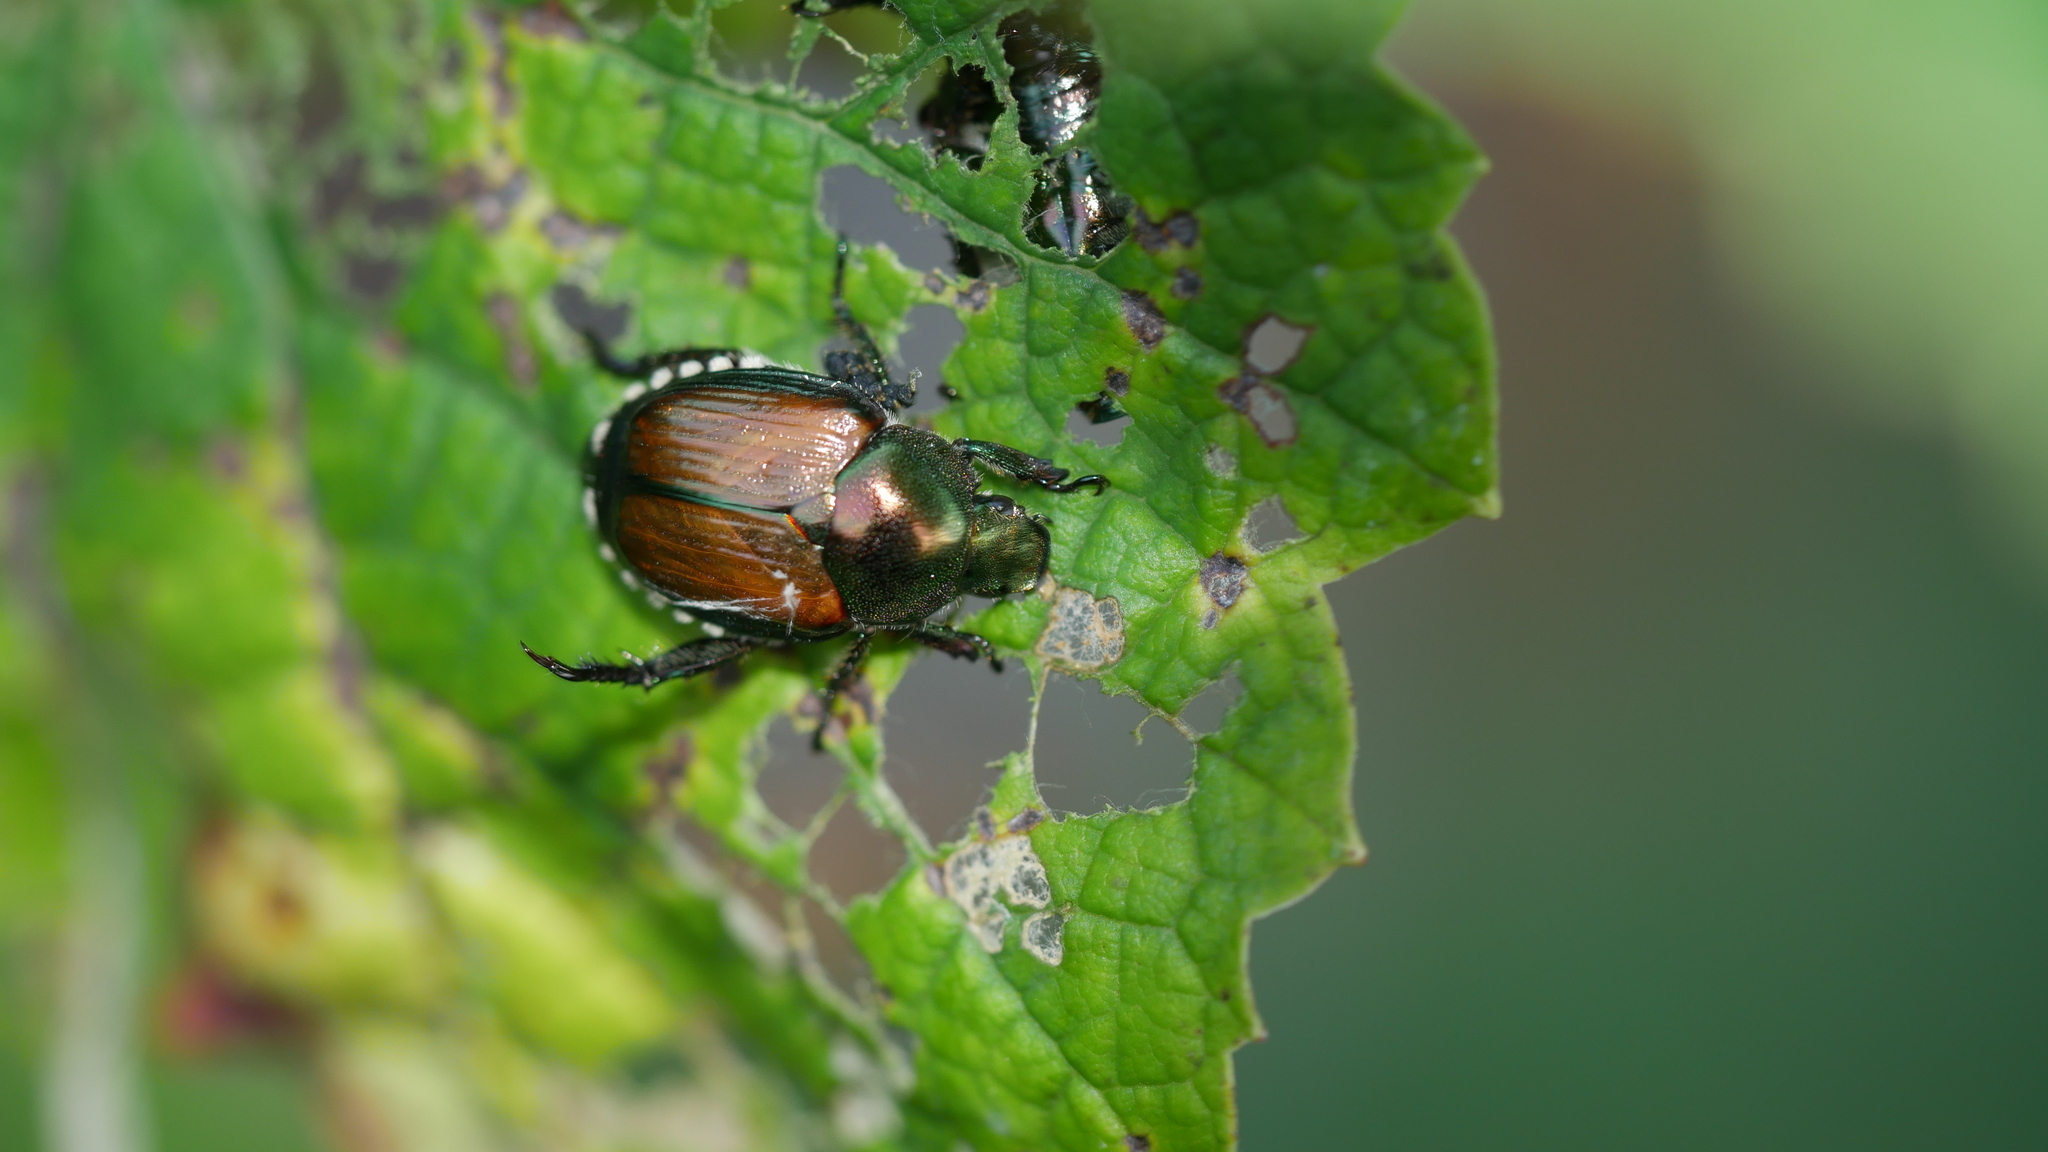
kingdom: Animalia
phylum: Arthropoda
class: Insecta
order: Coleoptera
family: Scarabaeidae
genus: Popillia
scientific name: Popillia japonica
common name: Japanese beetle
